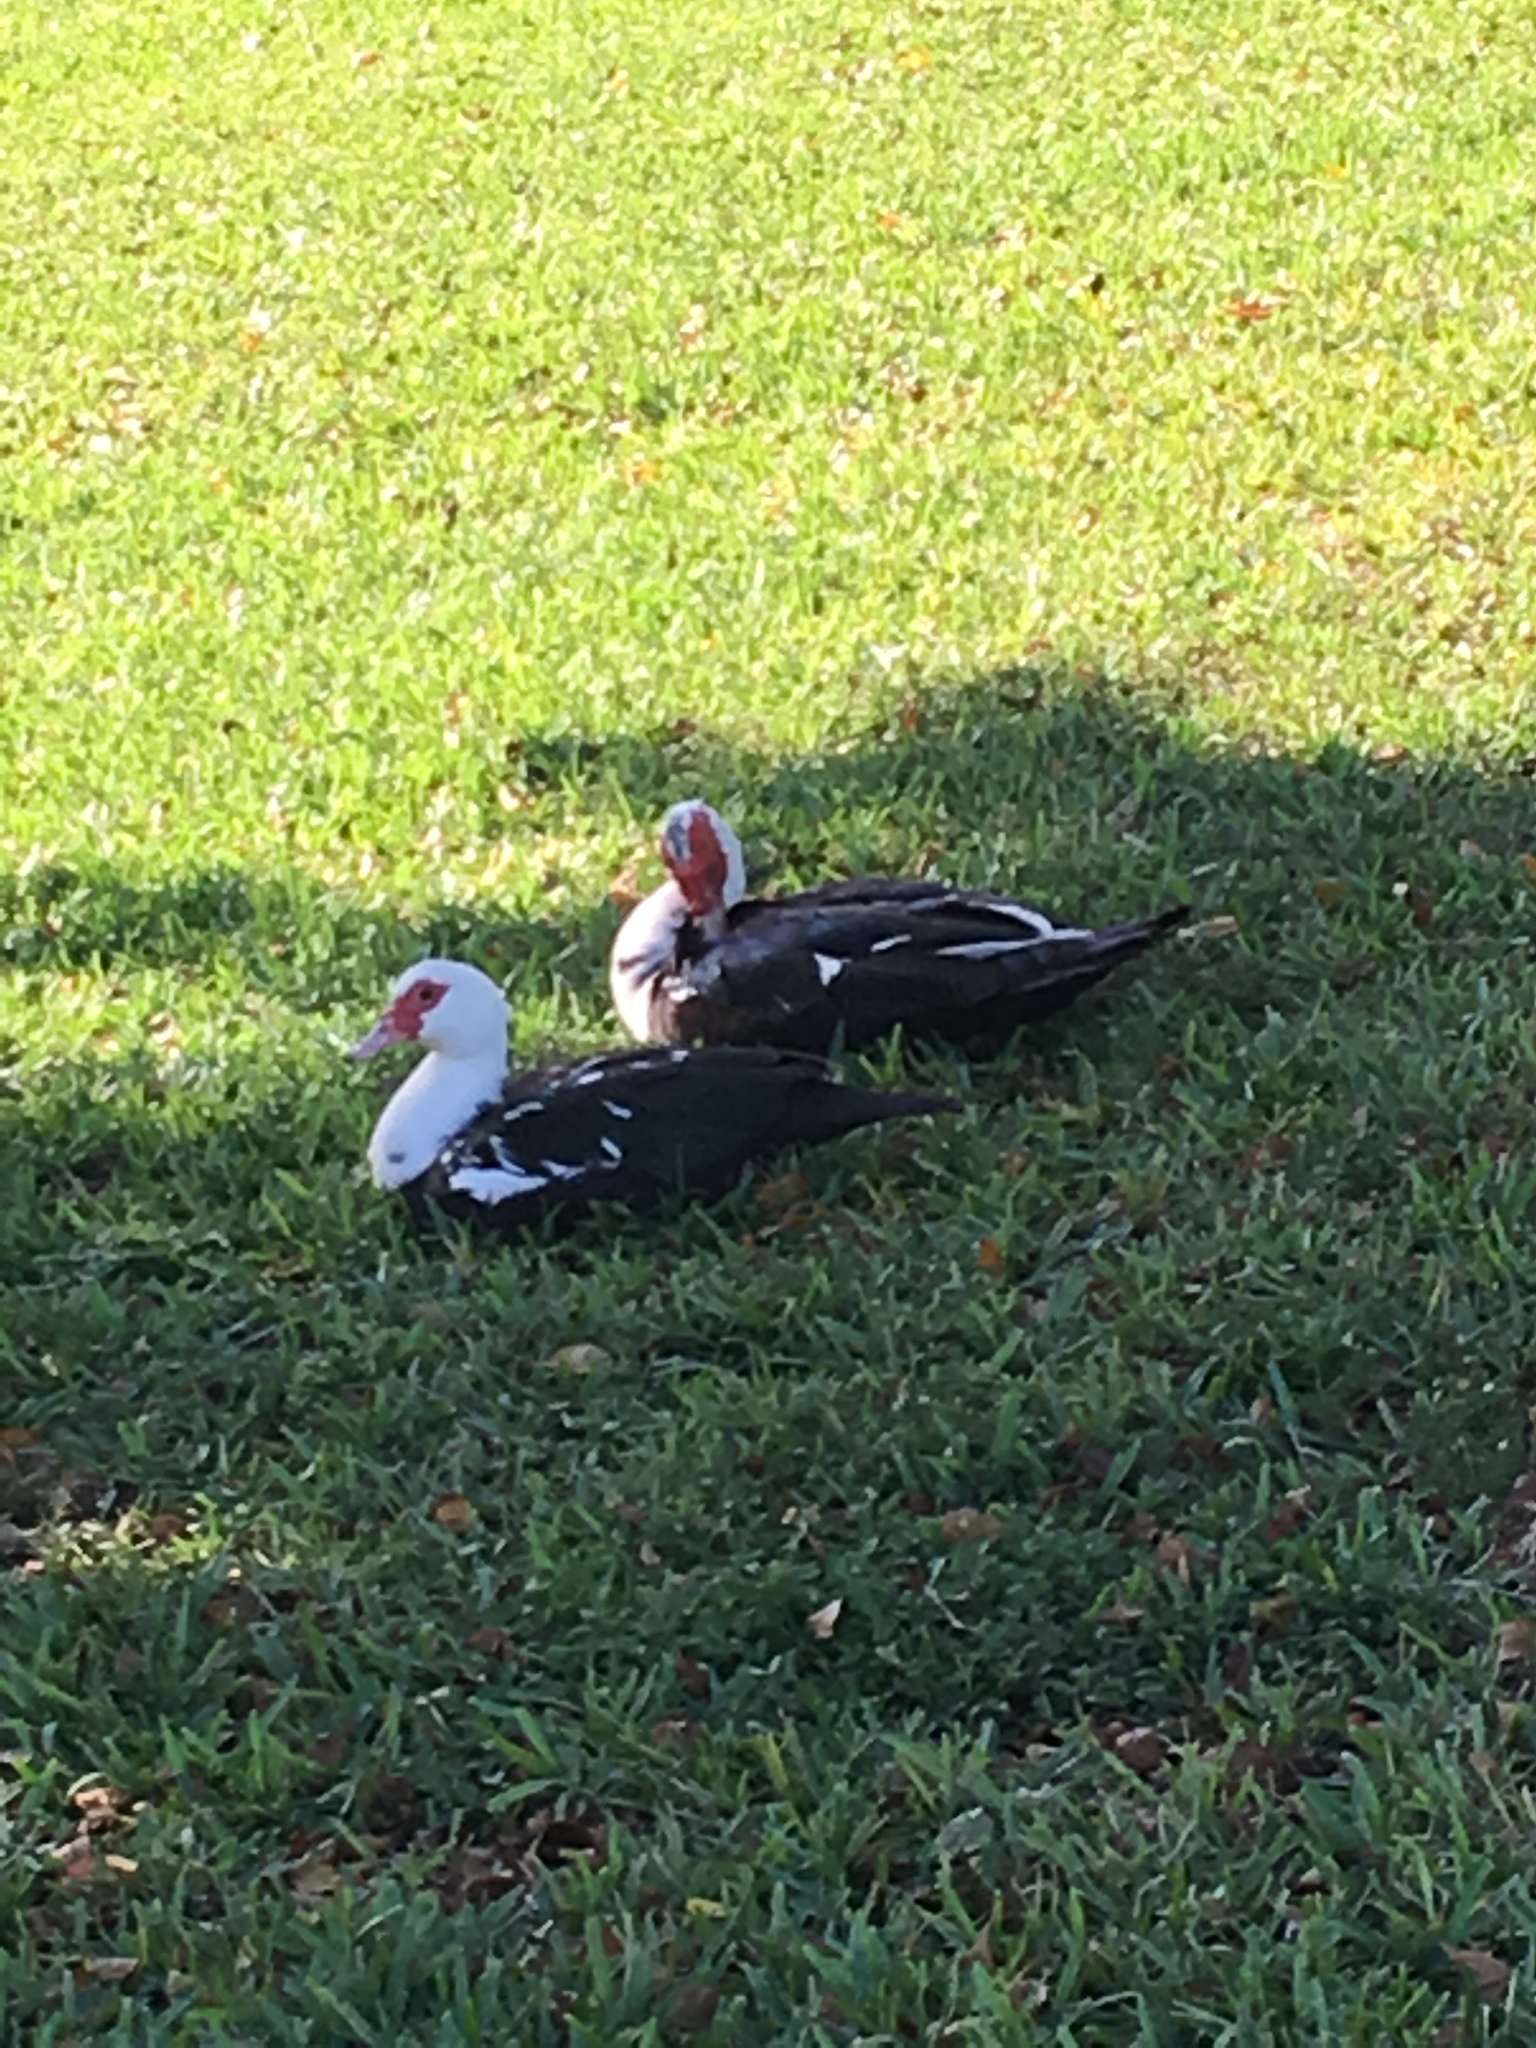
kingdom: Animalia
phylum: Chordata
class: Aves
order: Anseriformes
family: Anatidae
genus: Cairina
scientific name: Cairina moschata
